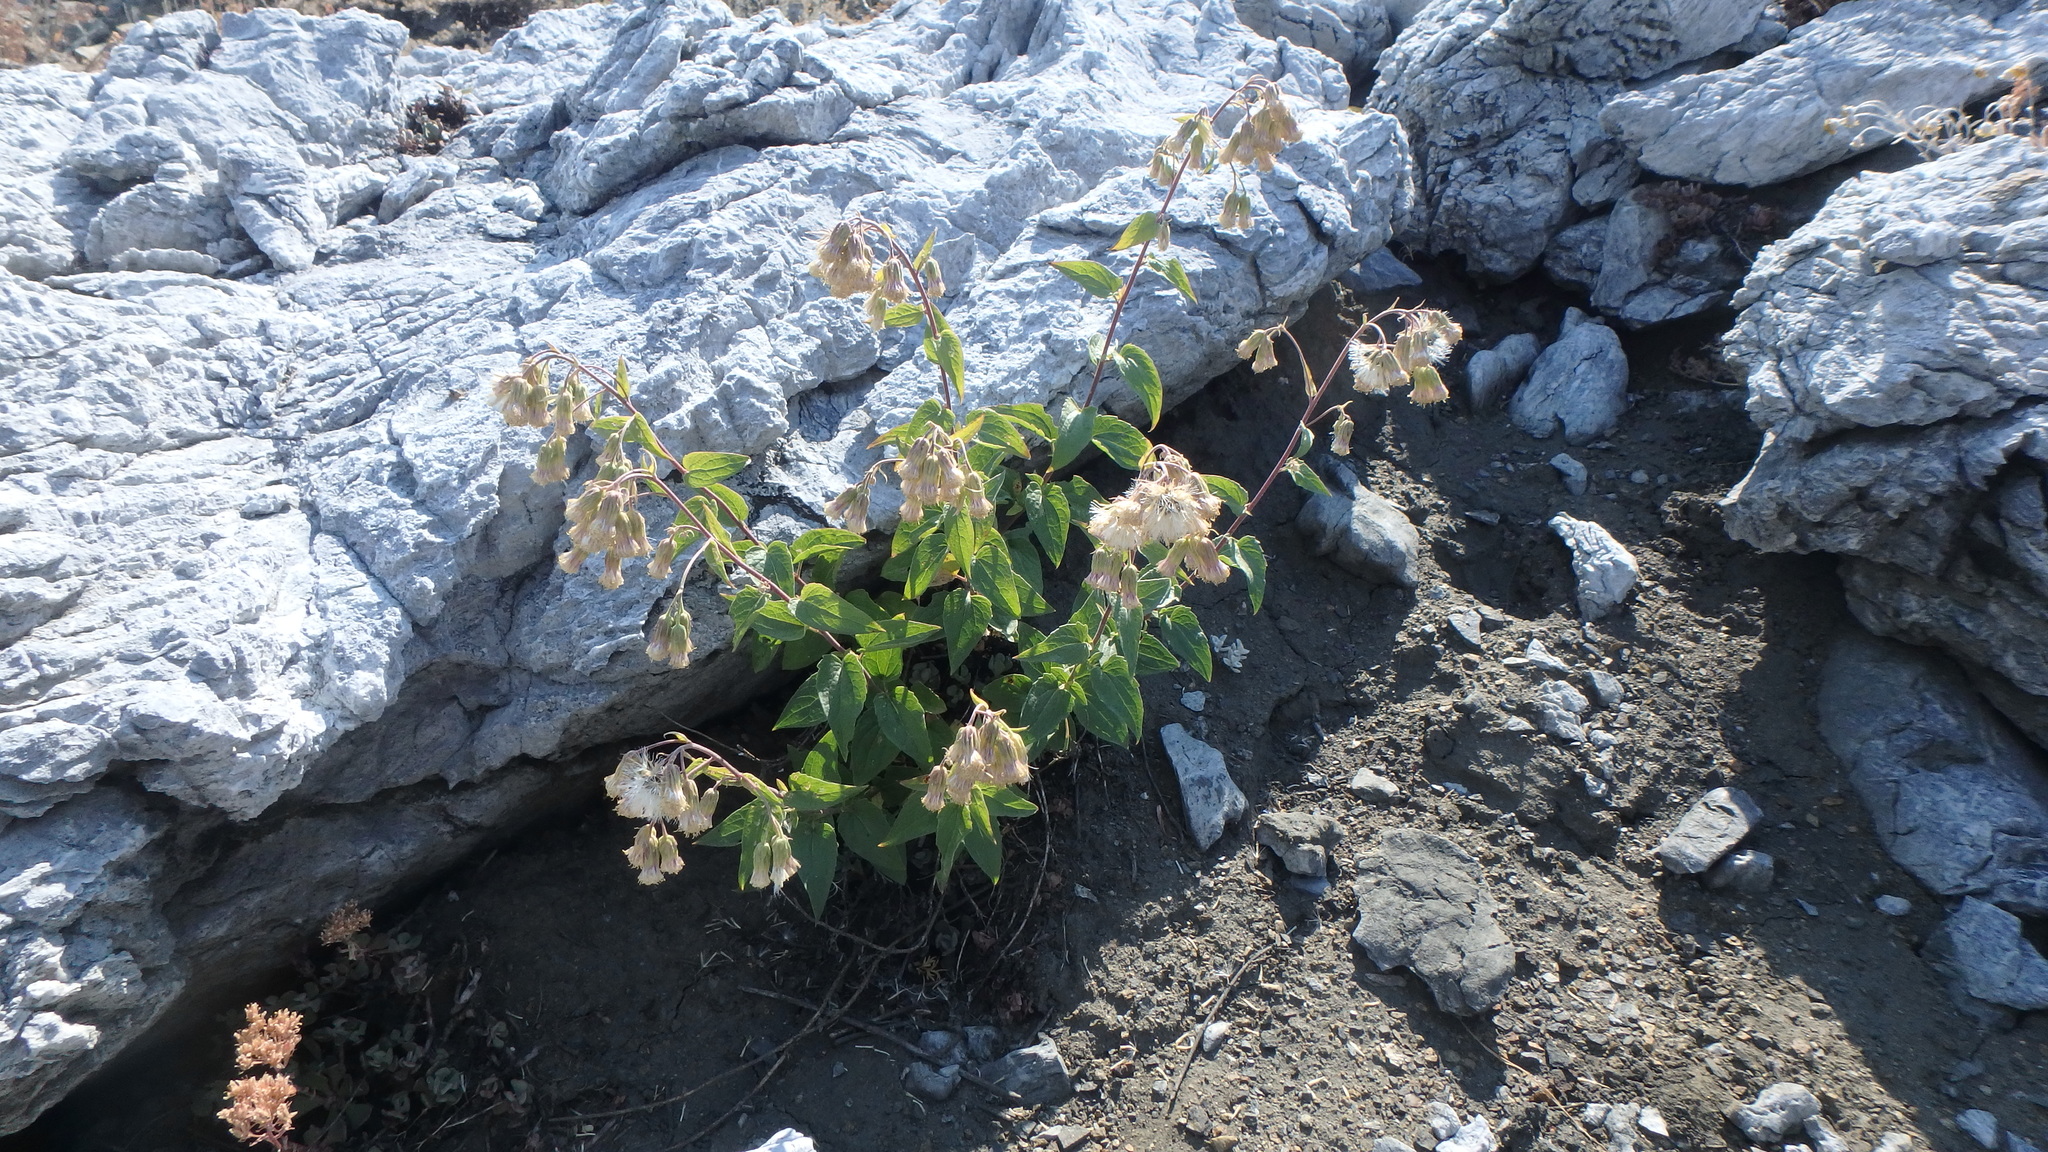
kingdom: Plantae
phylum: Tracheophyta
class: Magnoliopsida
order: Asterales
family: Asteraceae
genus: Brickellia
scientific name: Brickellia grandiflora
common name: Large-flowered brickellia
